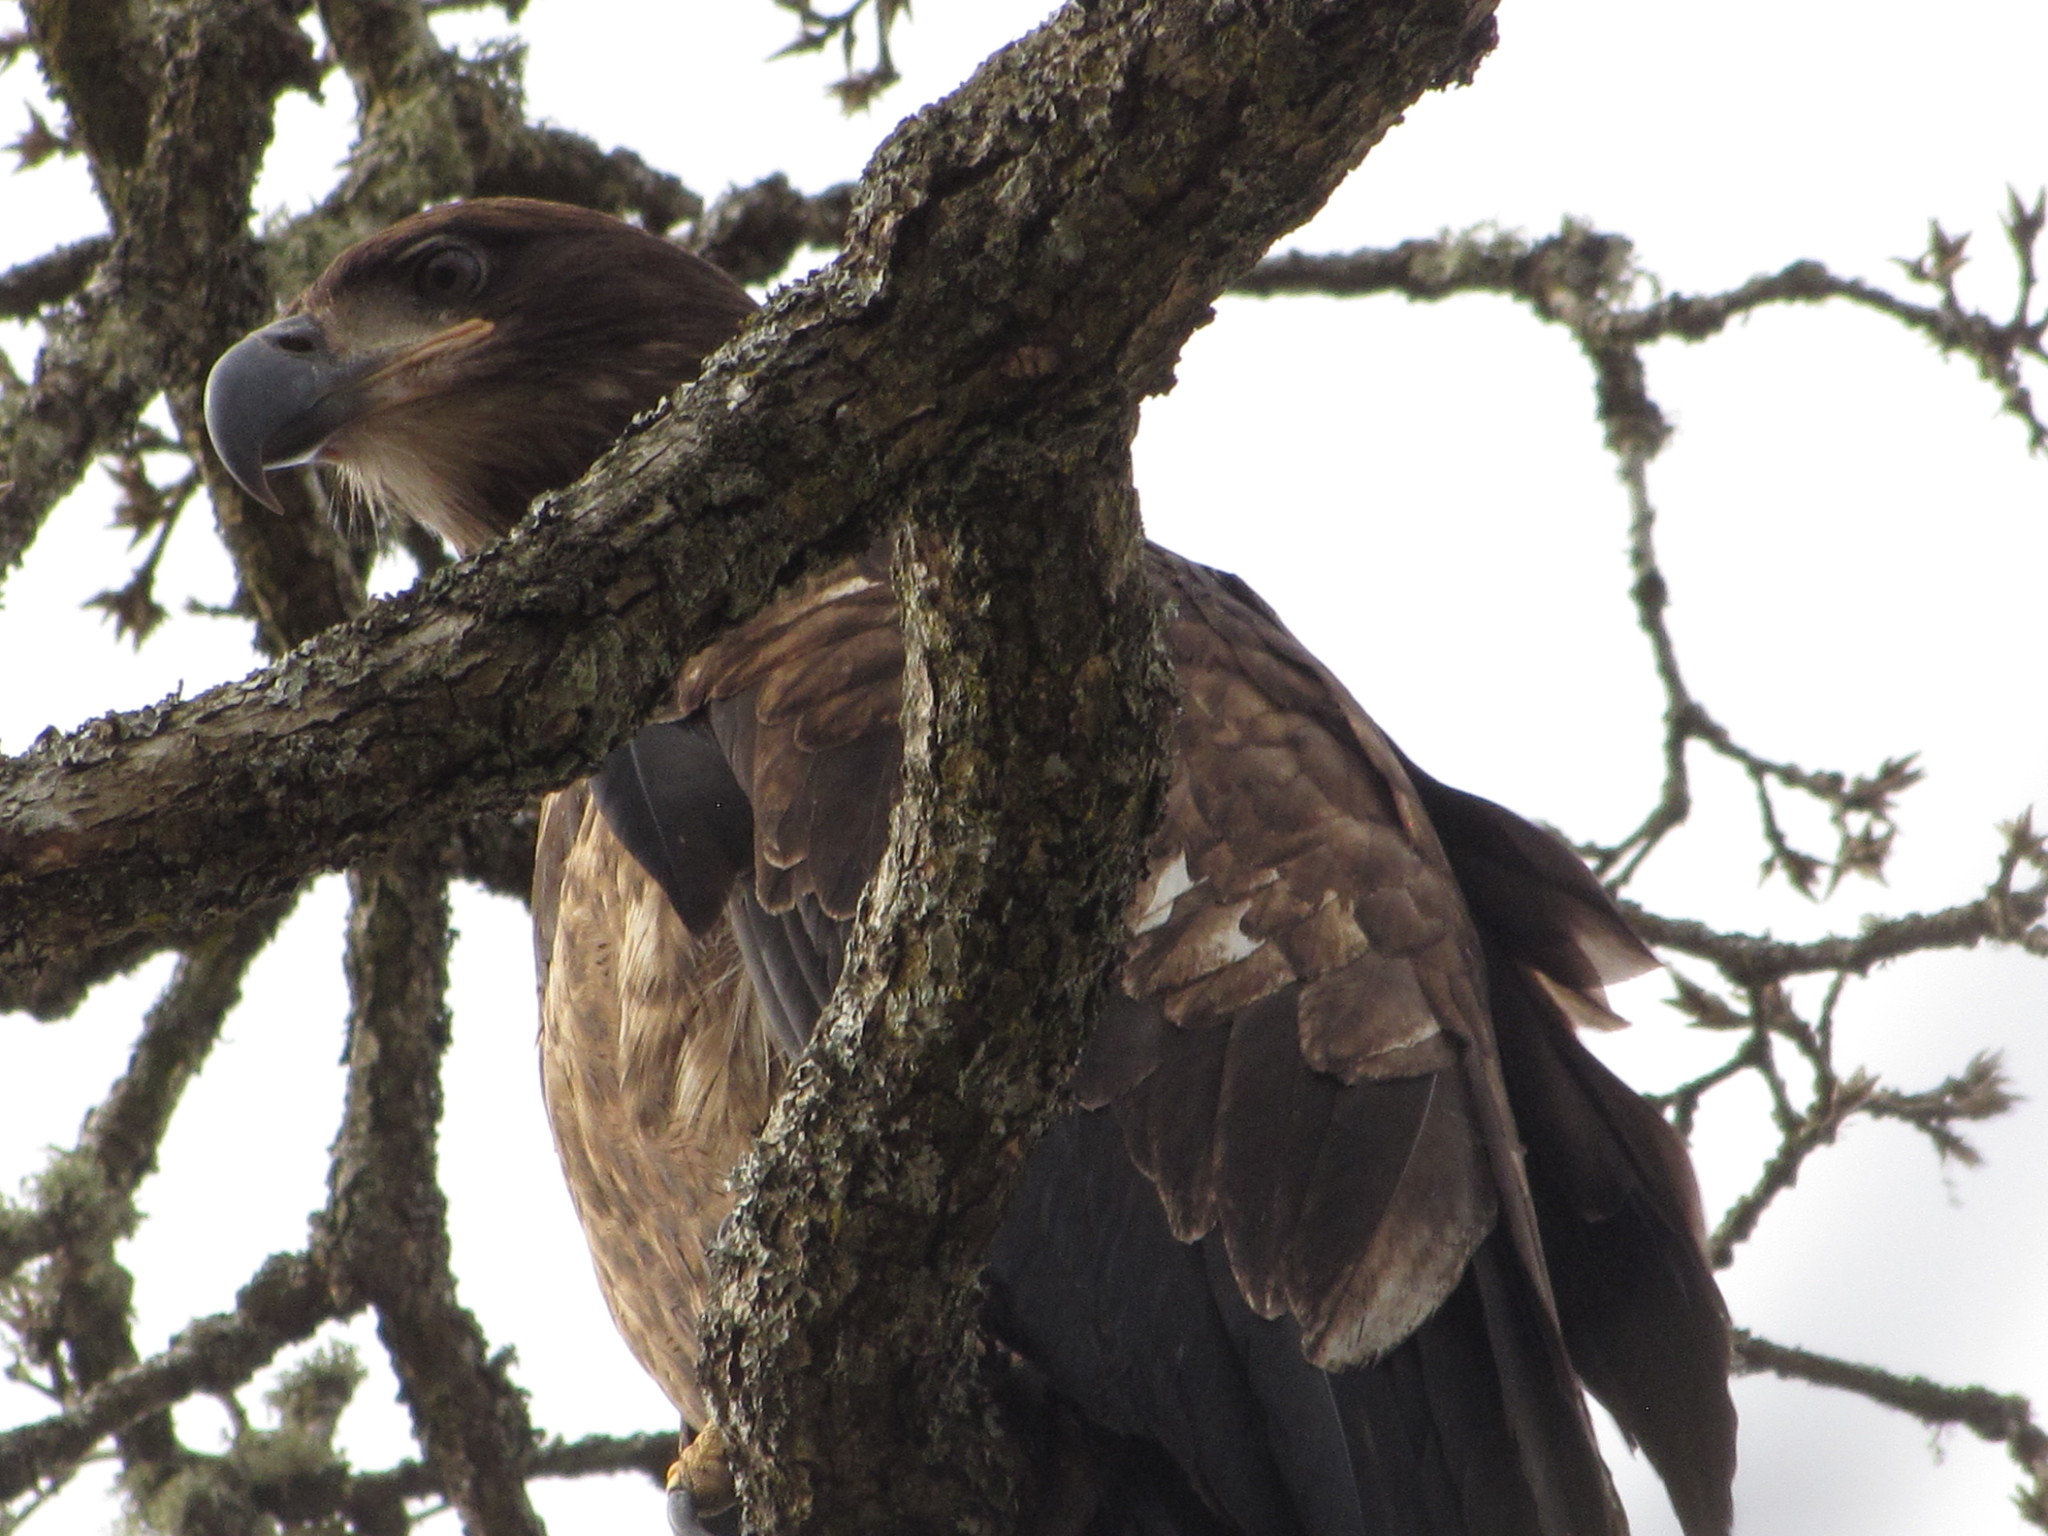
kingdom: Animalia
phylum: Chordata
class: Aves
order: Accipitriformes
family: Accipitridae
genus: Haliaeetus
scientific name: Haliaeetus leucocephalus
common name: Bald eagle
